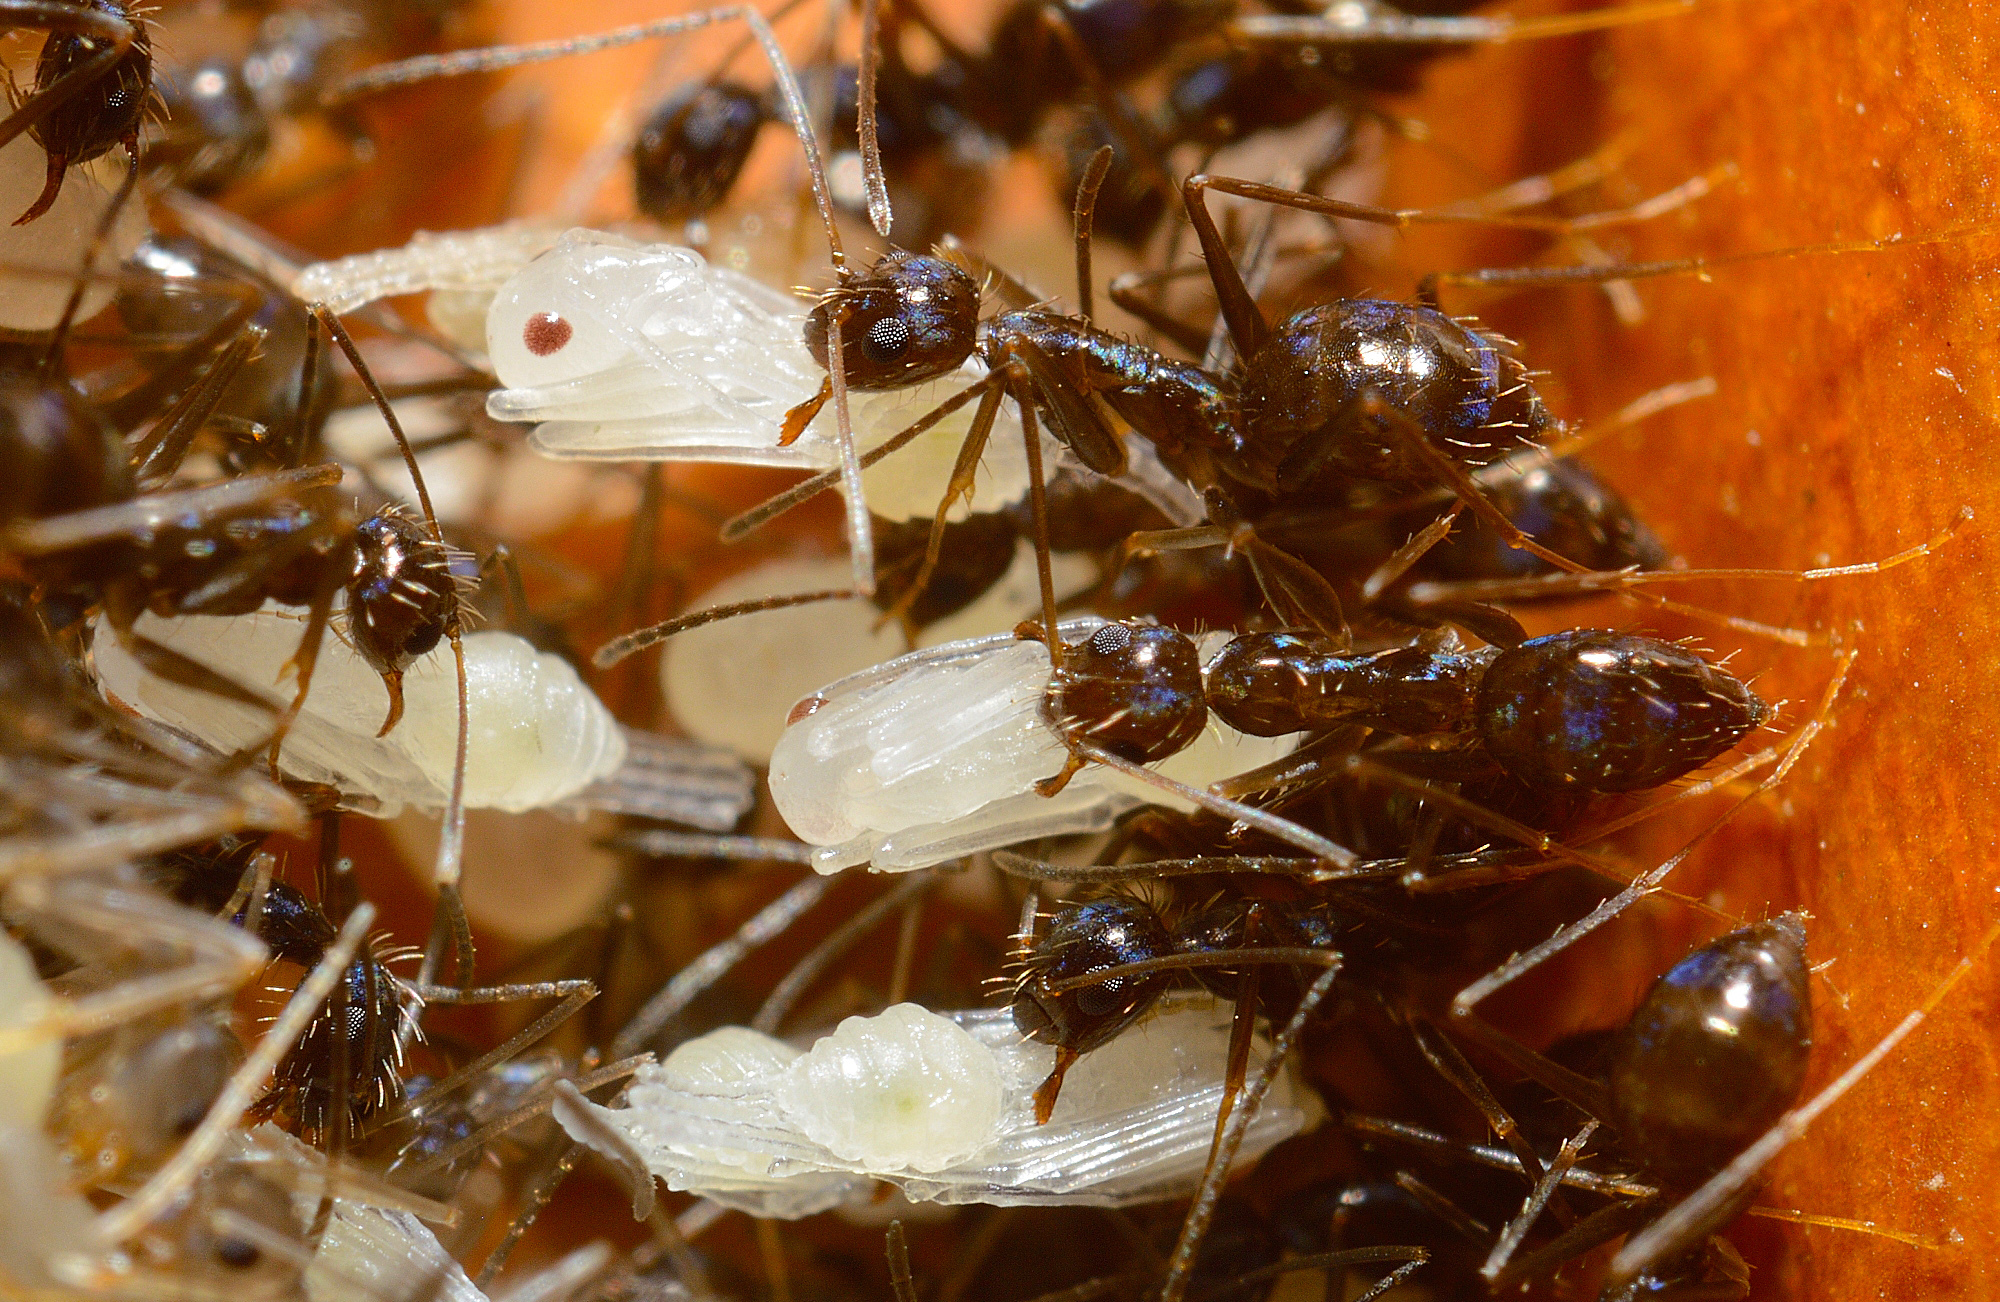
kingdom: Animalia
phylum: Arthropoda
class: Insecta
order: Hymenoptera
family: Formicidae
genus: Paratrechina
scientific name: Paratrechina longicornis
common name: Longhorned crazy ant
